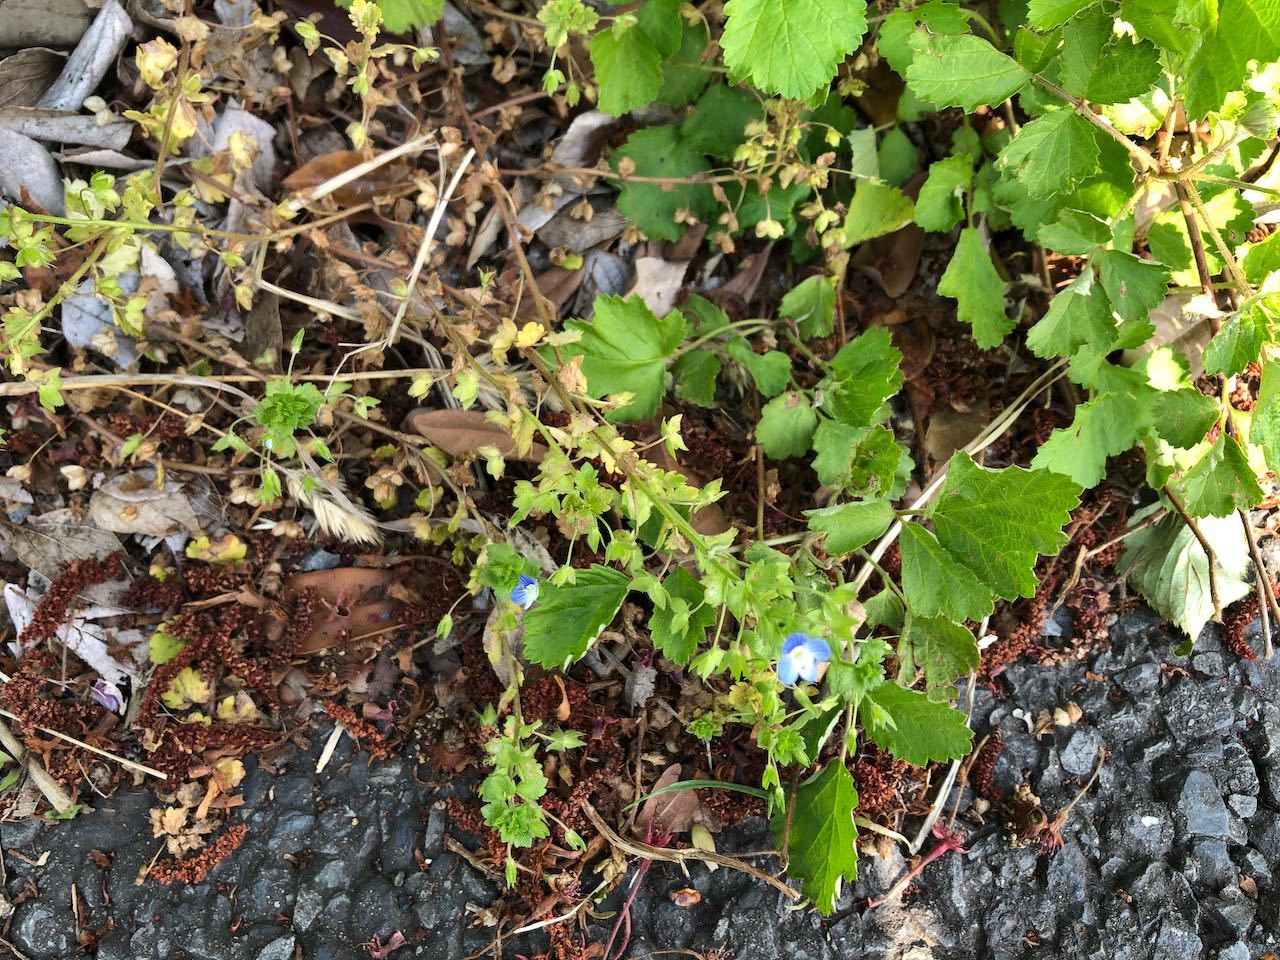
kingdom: Plantae
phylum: Tracheophyta
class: Magnoliopsida
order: Lamiales
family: Plantaginaceae
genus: Veronica
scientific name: Veronica persica
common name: Common field-speedwell
